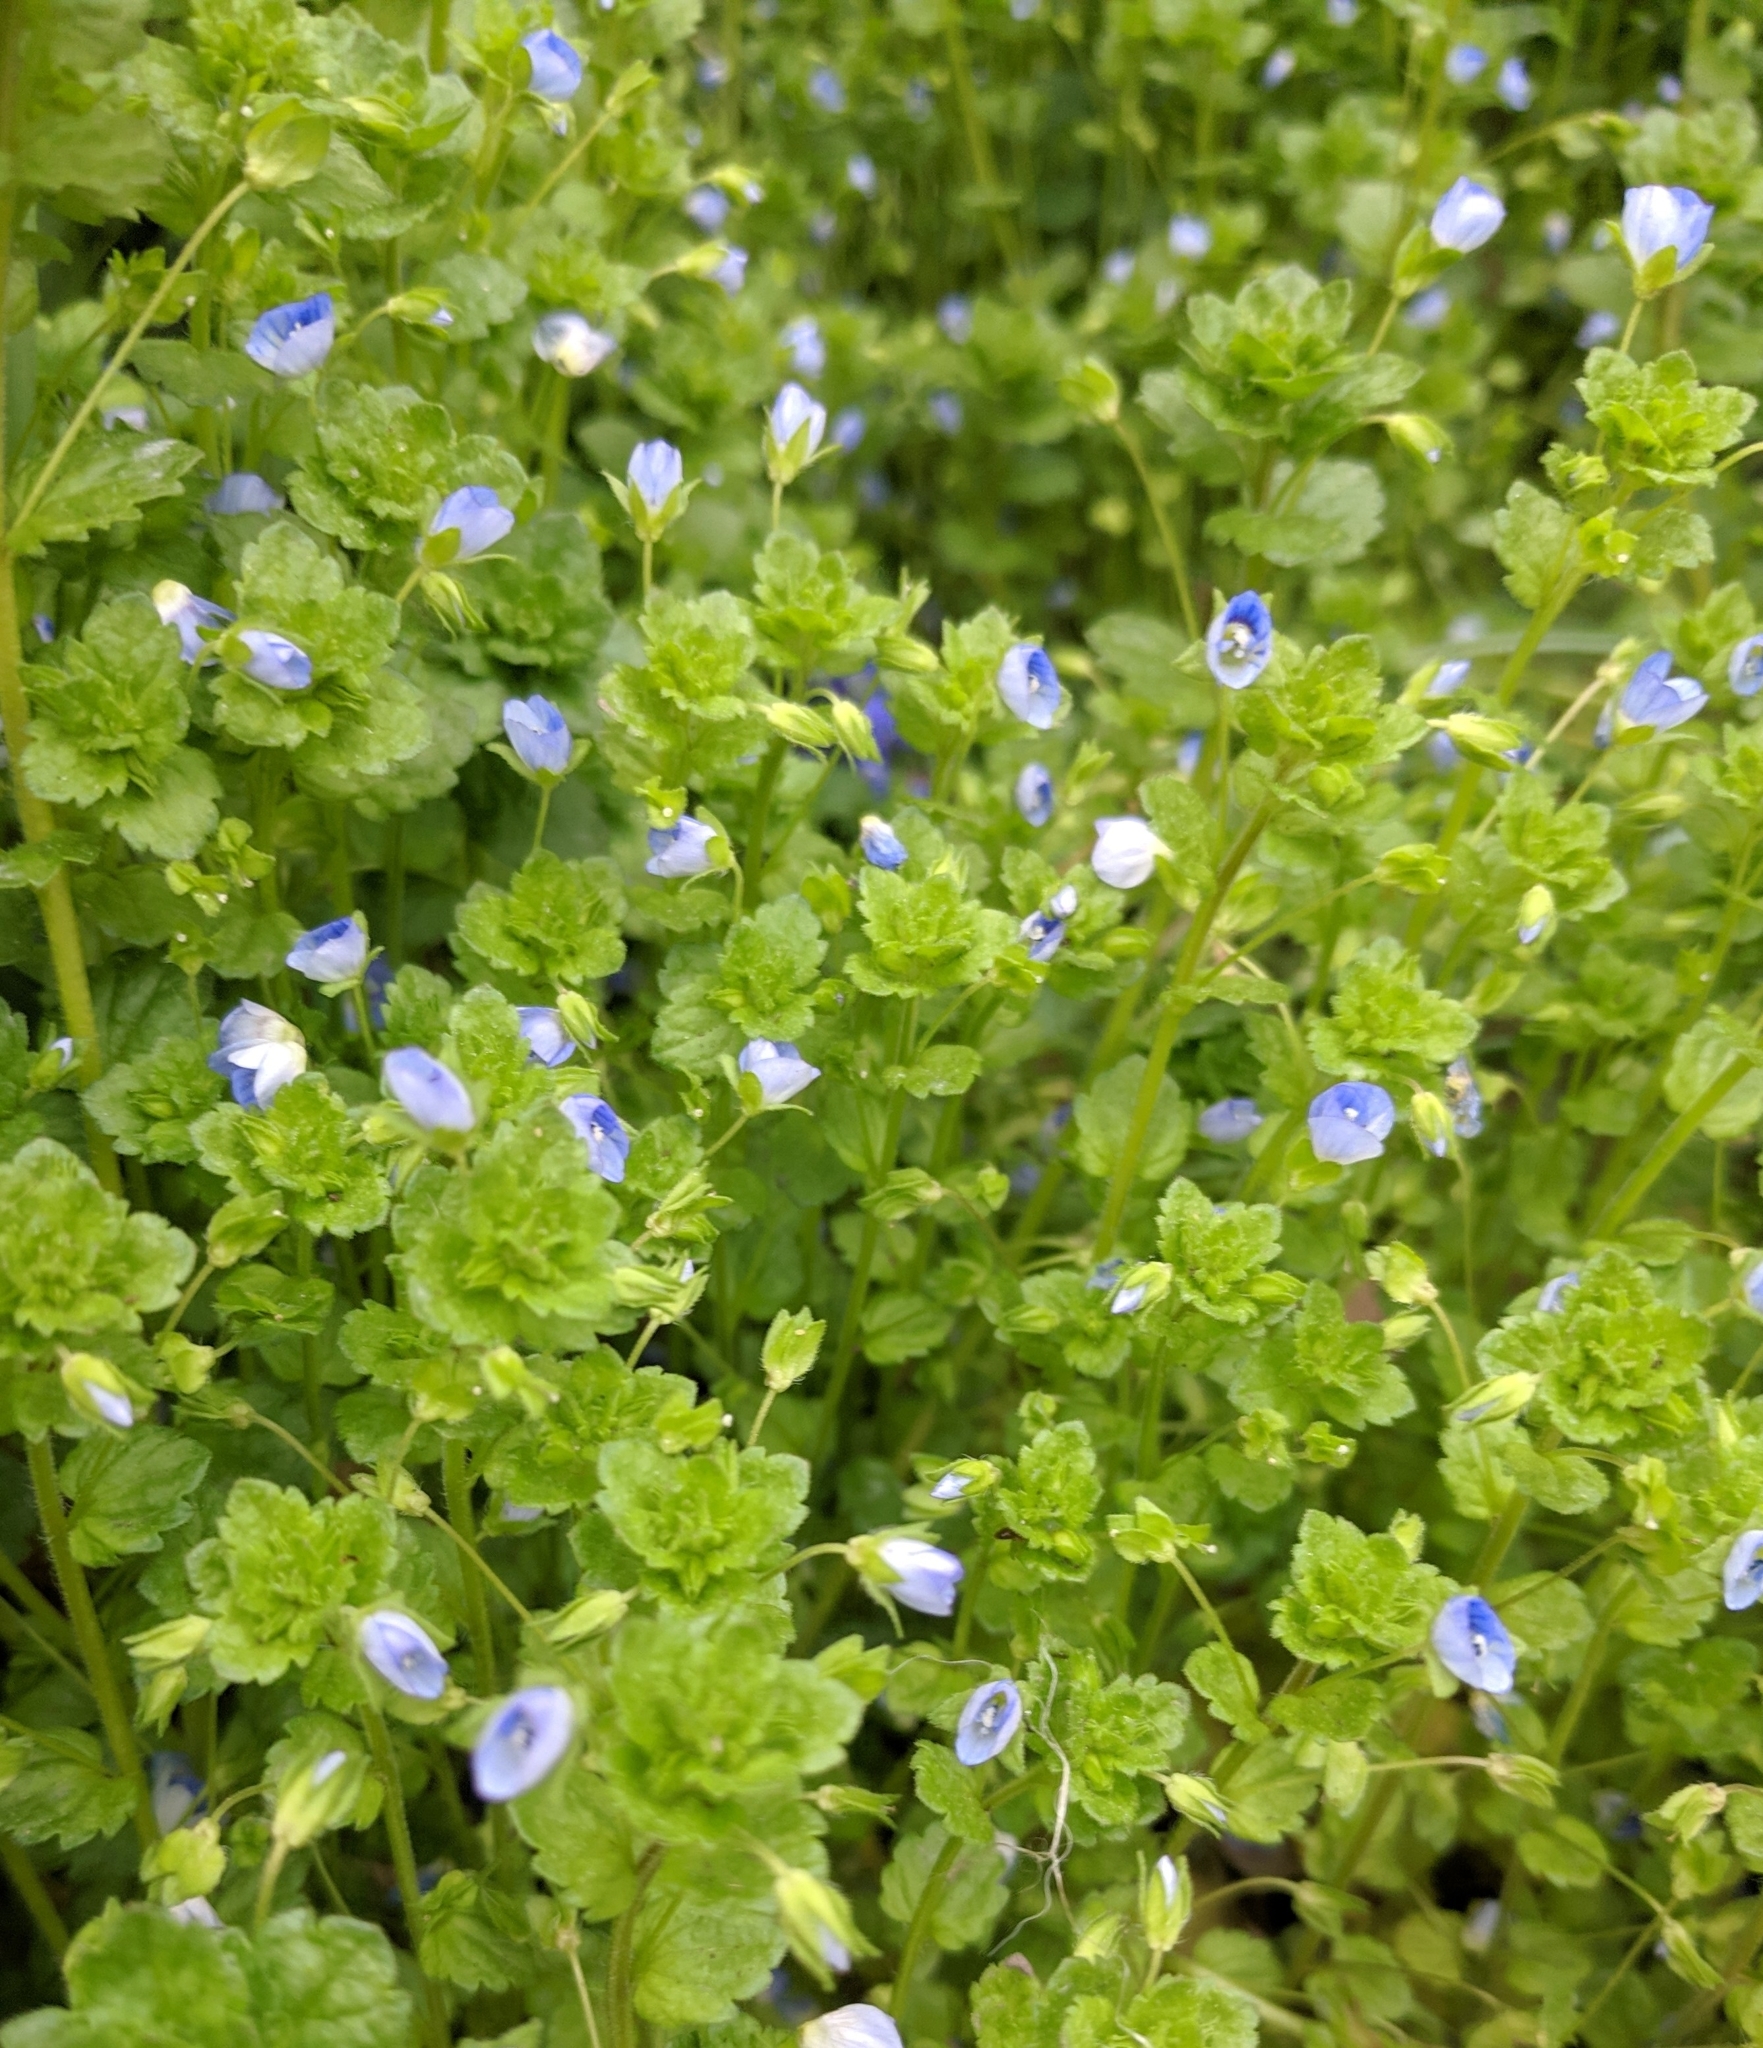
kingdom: Plantae
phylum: Tracheophyta
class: Magnoliopsida
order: Lamiales
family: Plantaginaceae
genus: Veronica
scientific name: Veronica persica
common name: Common field-speedwell
